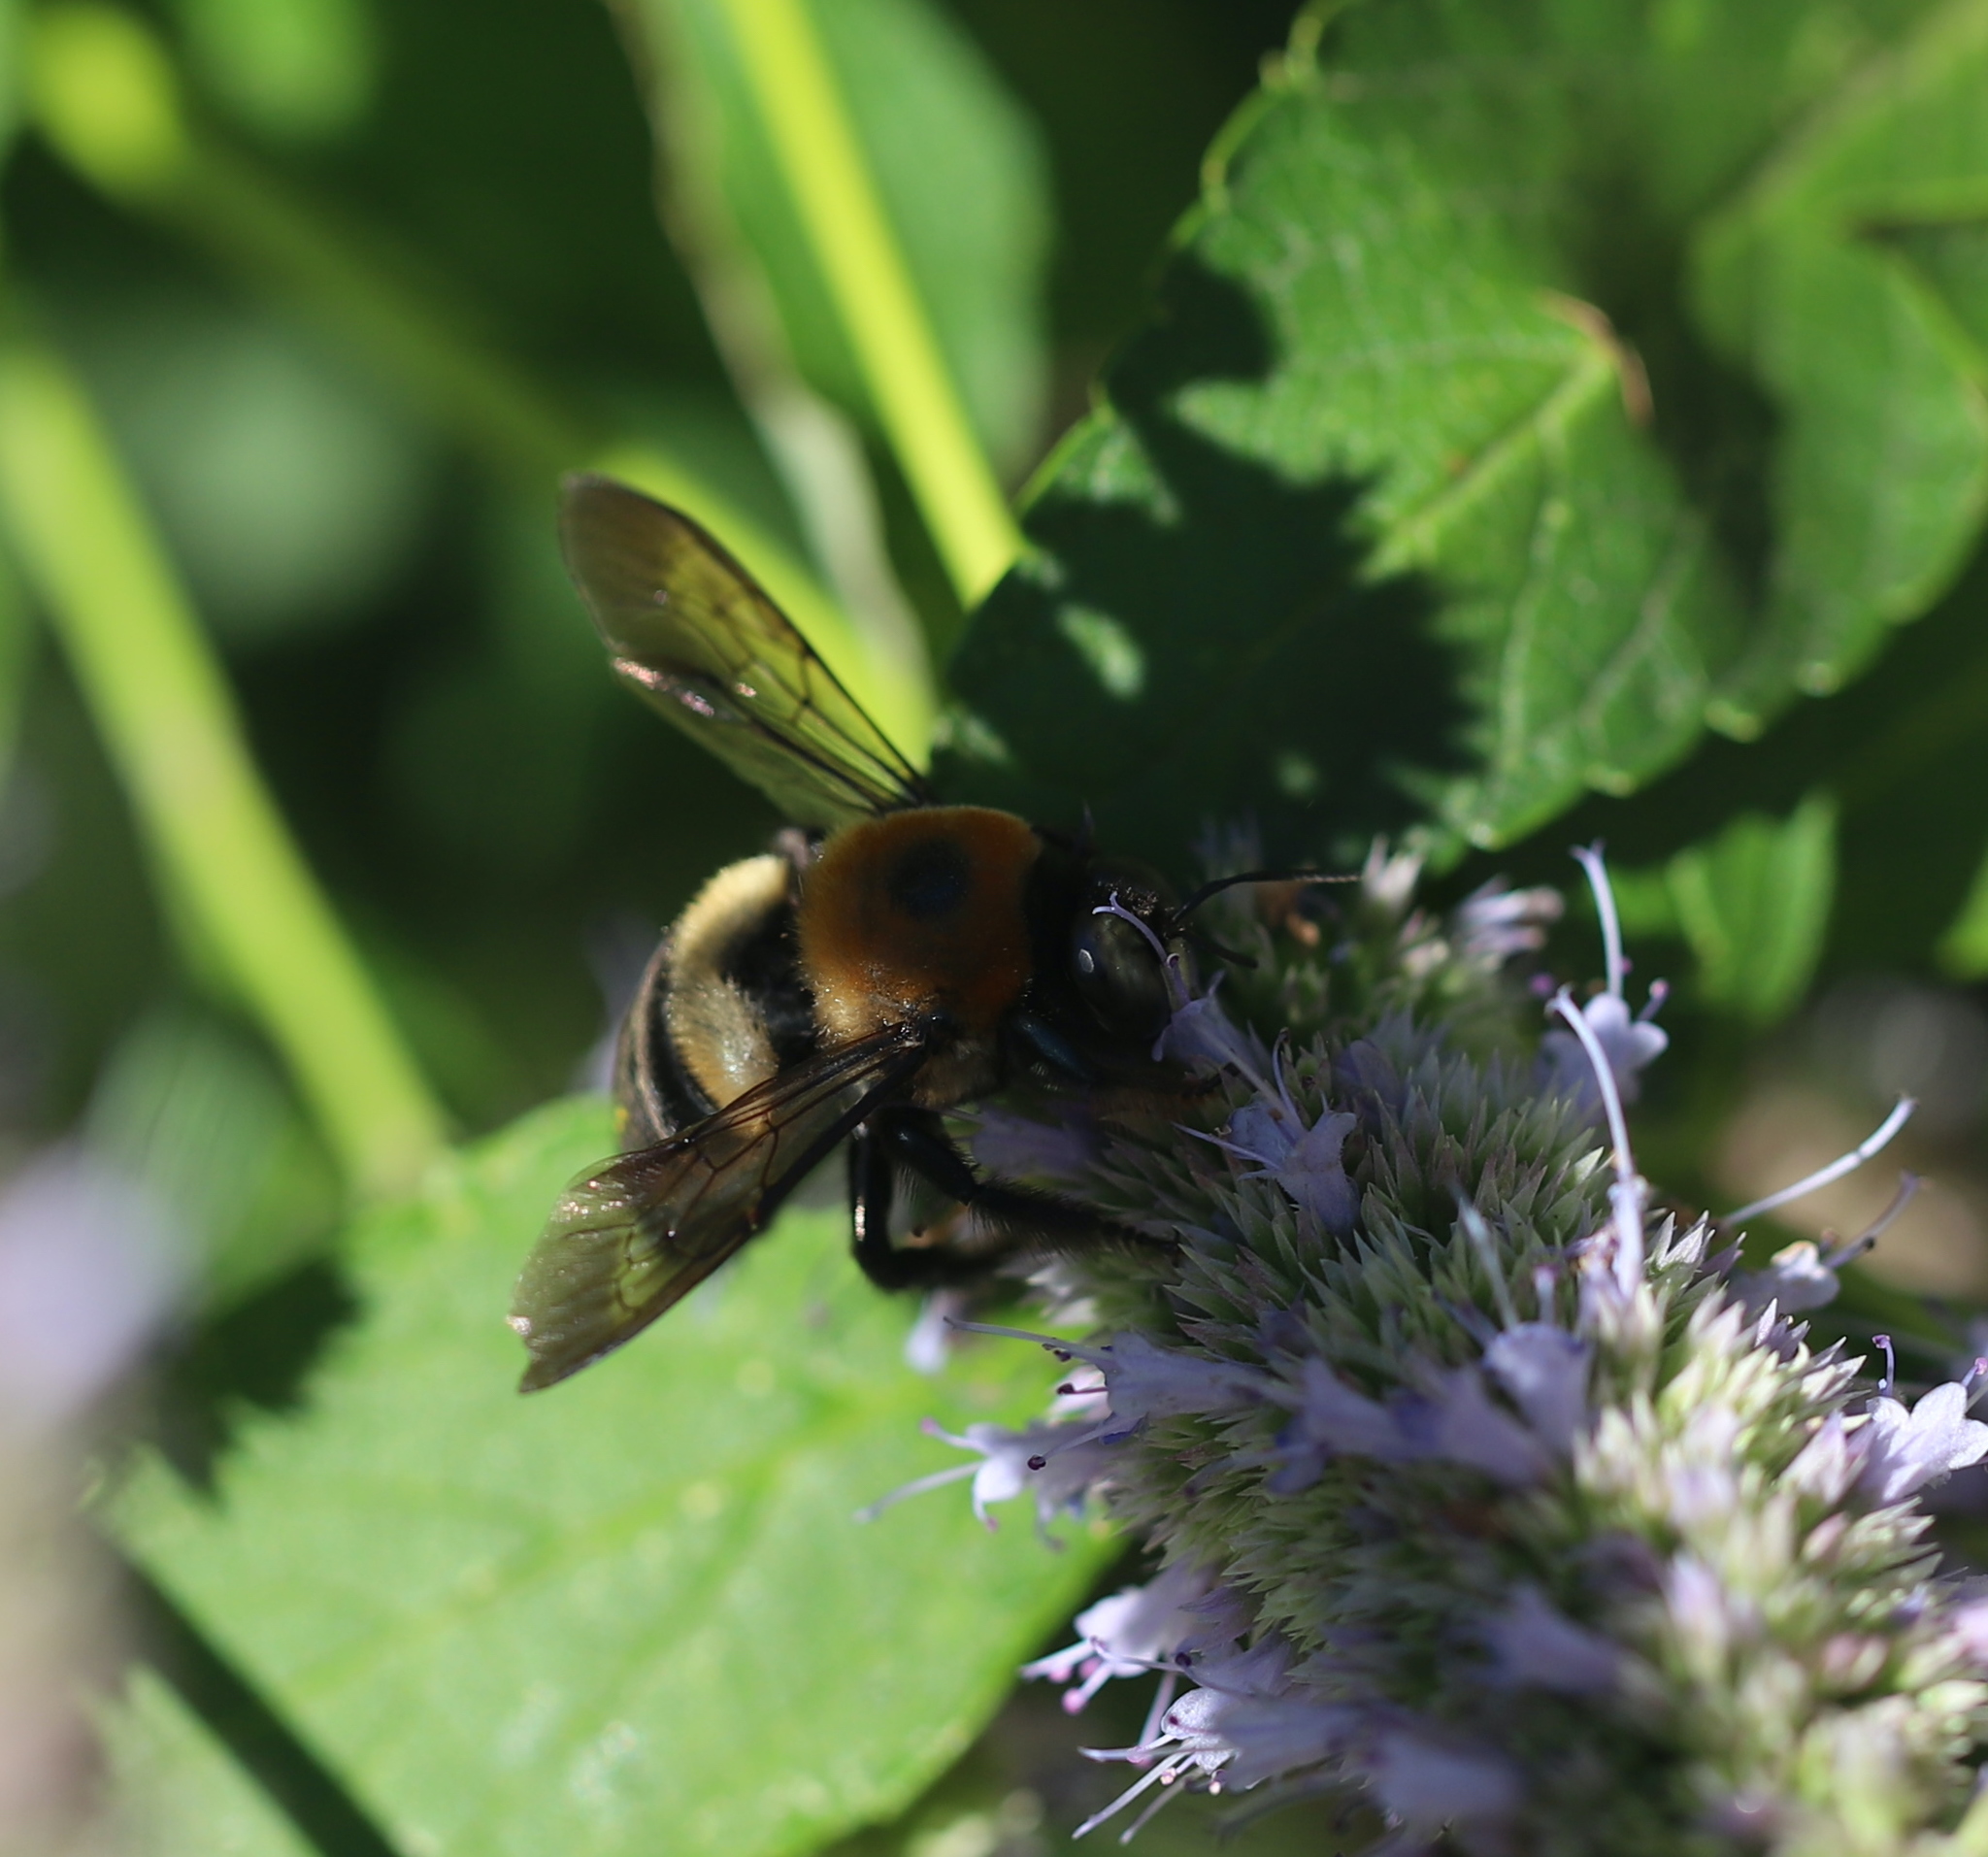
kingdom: Animalia
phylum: Arthropoda
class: Insecta
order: Hymenoptera
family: Apidae
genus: Xylocopa
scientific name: Xylocopa virginica
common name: Carpenter bee
